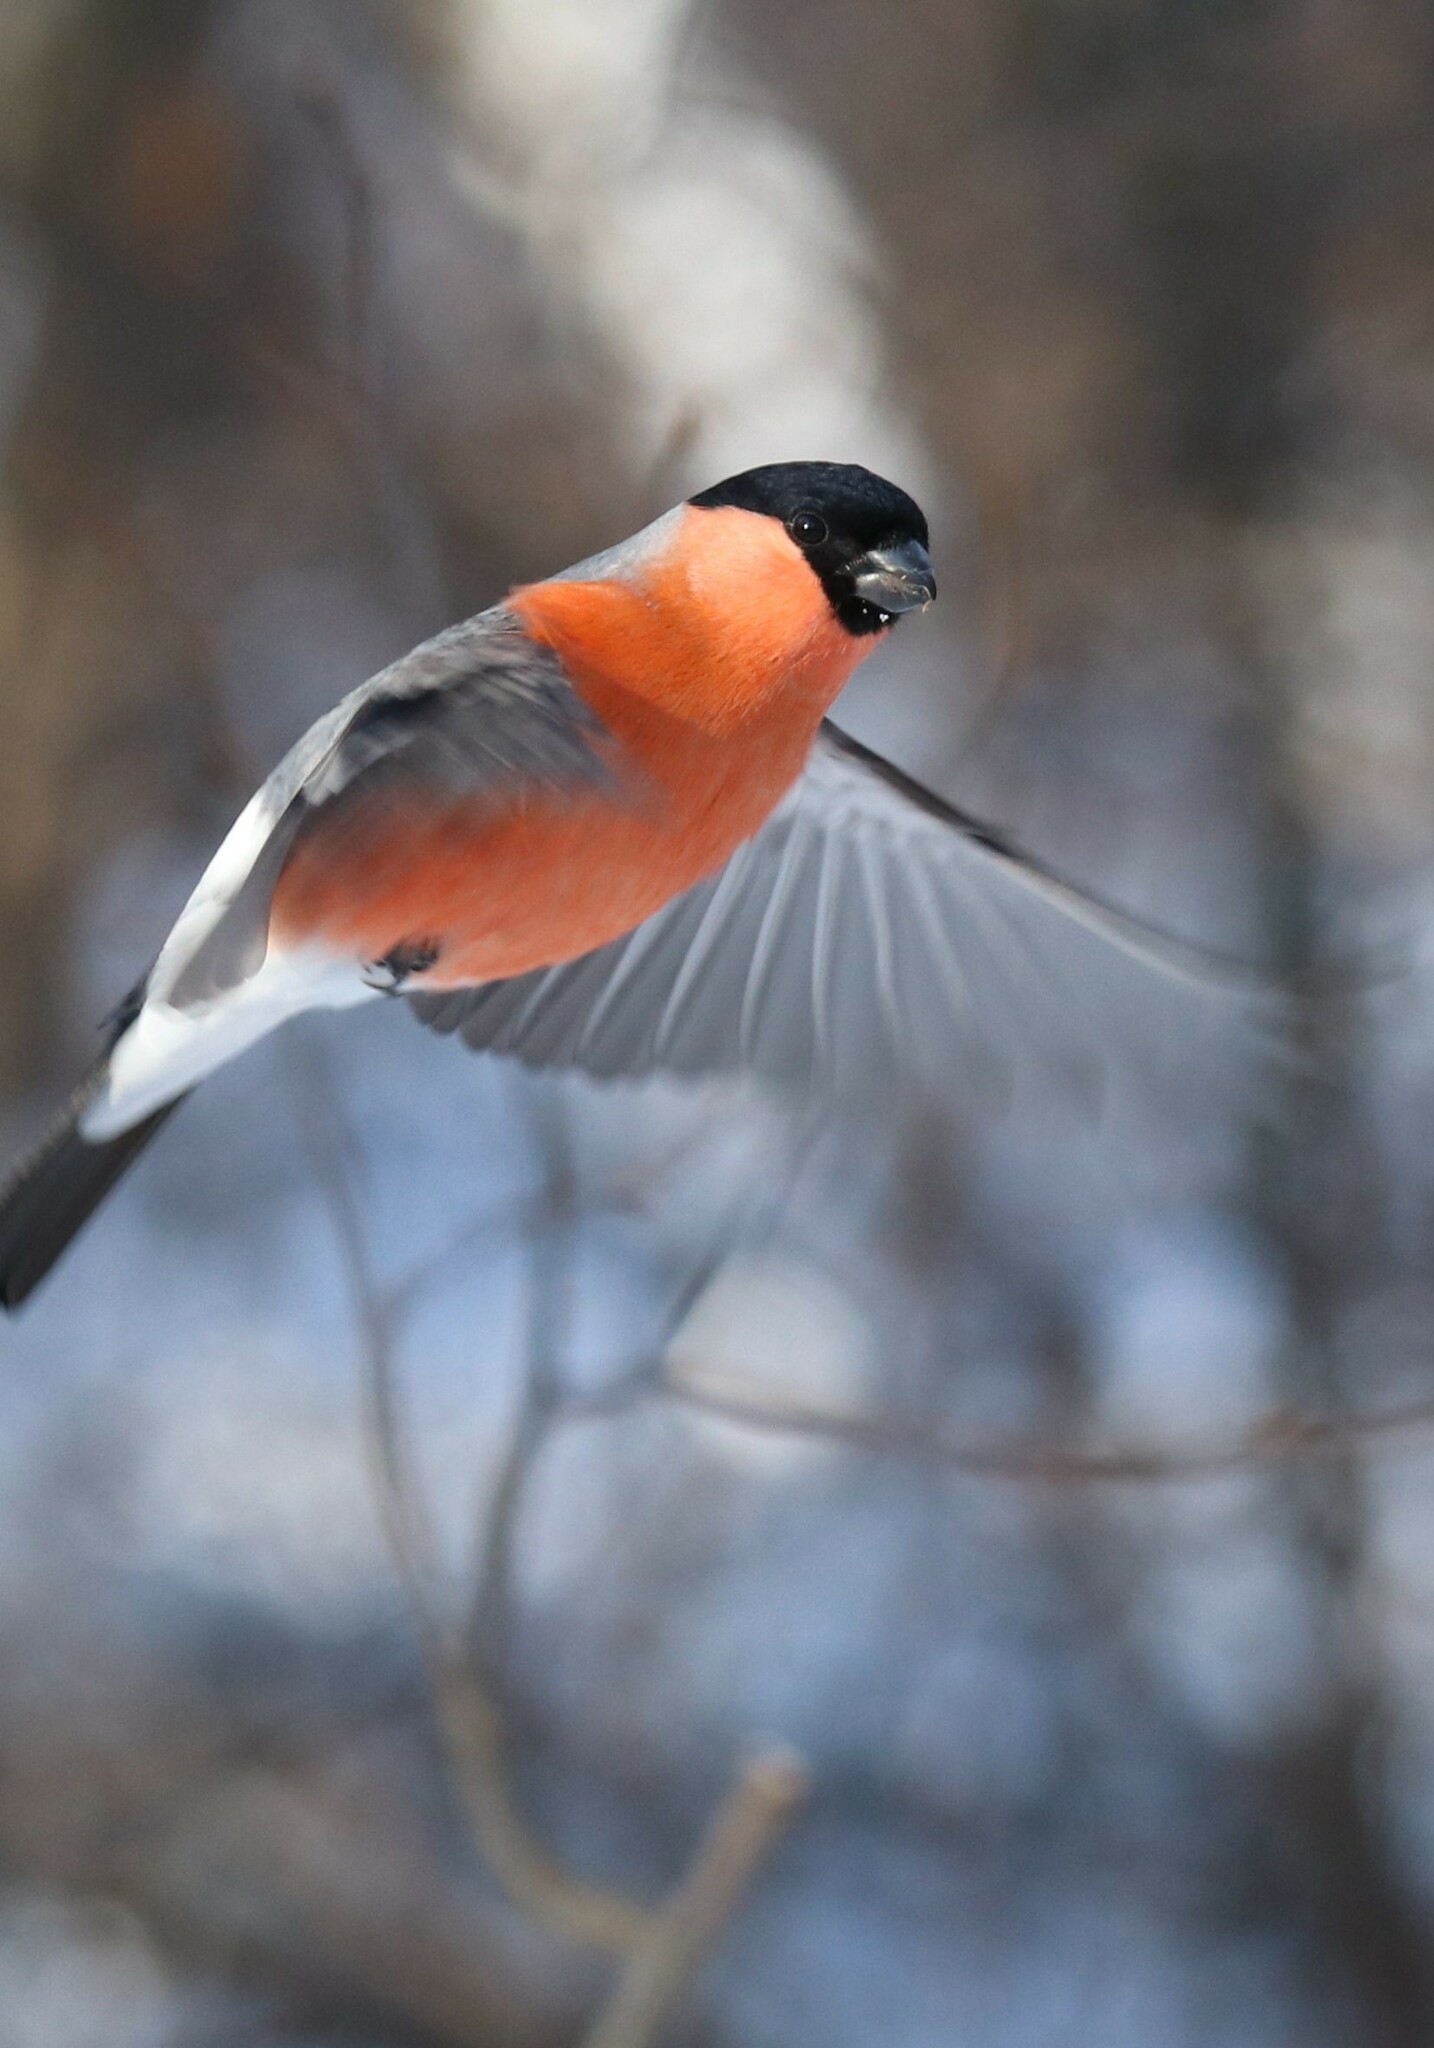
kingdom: Animalia
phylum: Chordata
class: Aves
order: Passeriformes
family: Fringillidae
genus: Pyrrhula
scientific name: Pyrrhula pyrrhula
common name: Eurasian bullfinch
